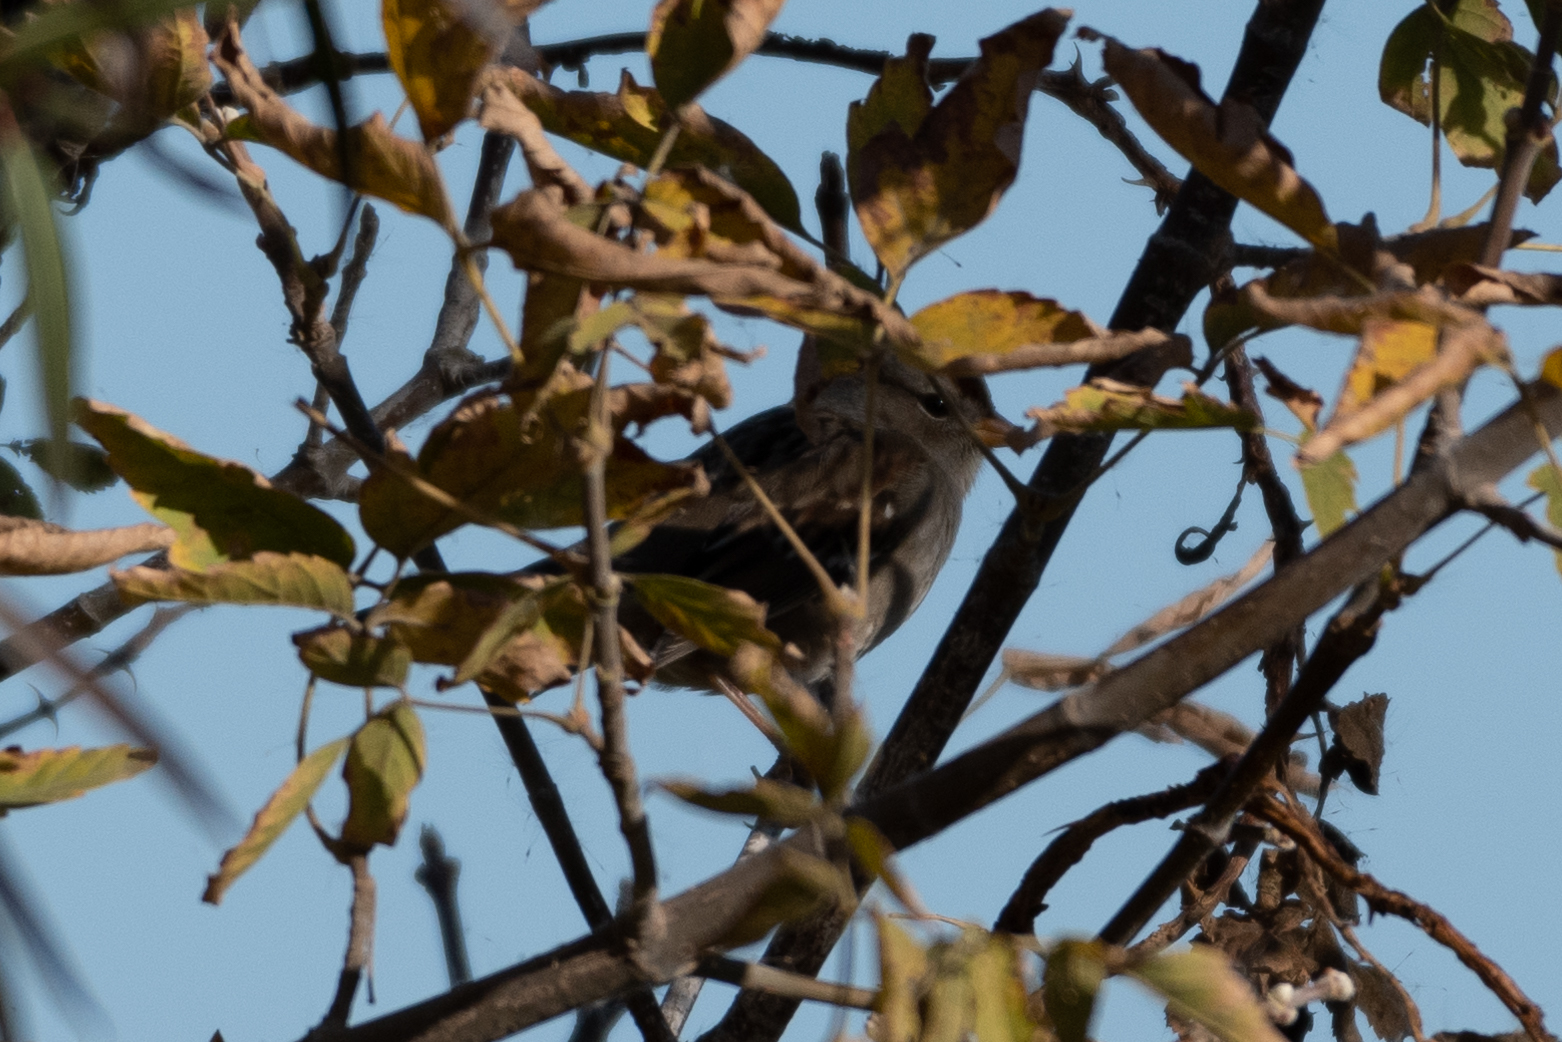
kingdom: Animalia
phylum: Chordata
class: Aves
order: Passeriformes
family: Passerellidae
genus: Zonotrichia
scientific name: Zonotrichia leucophrys
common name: White-crowned sparrow
